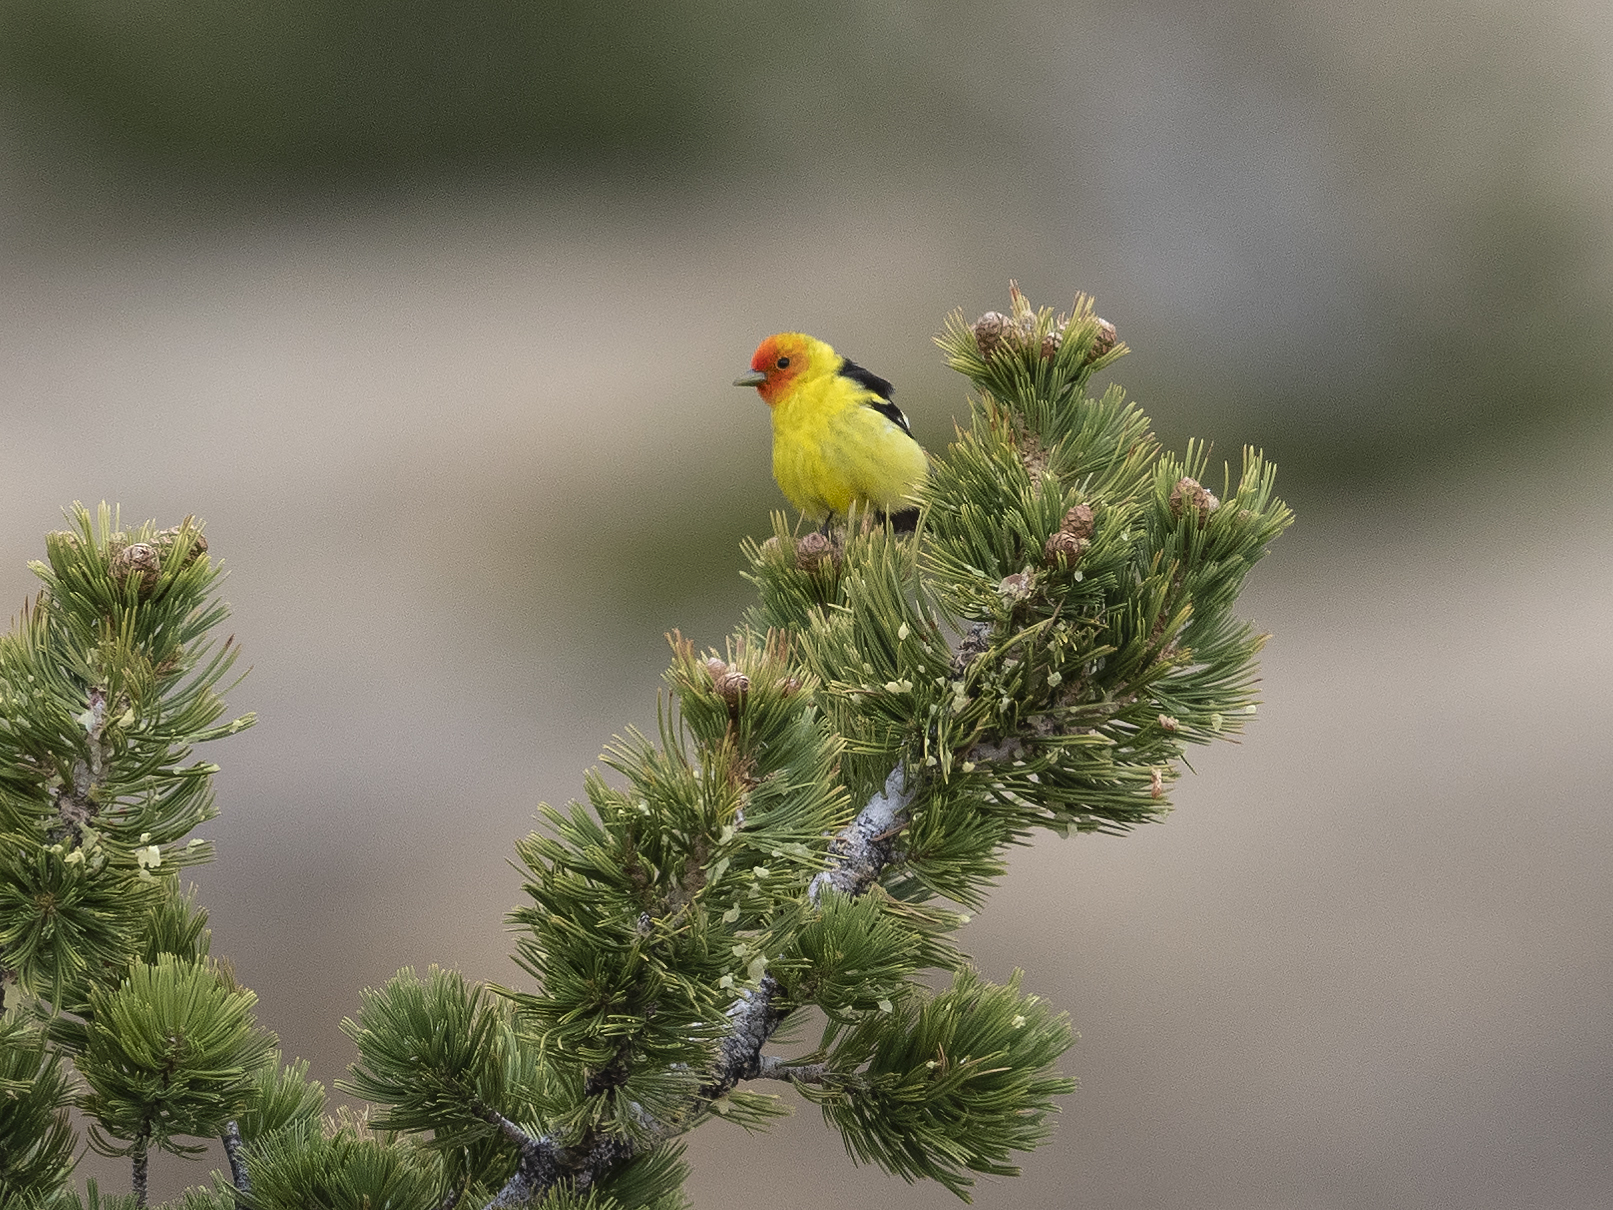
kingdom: Animalia
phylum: Chordata
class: Aves
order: Passeriformes
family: Cardinalidae
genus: Piranga
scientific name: Piranga ludoviciana
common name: Western tanager
